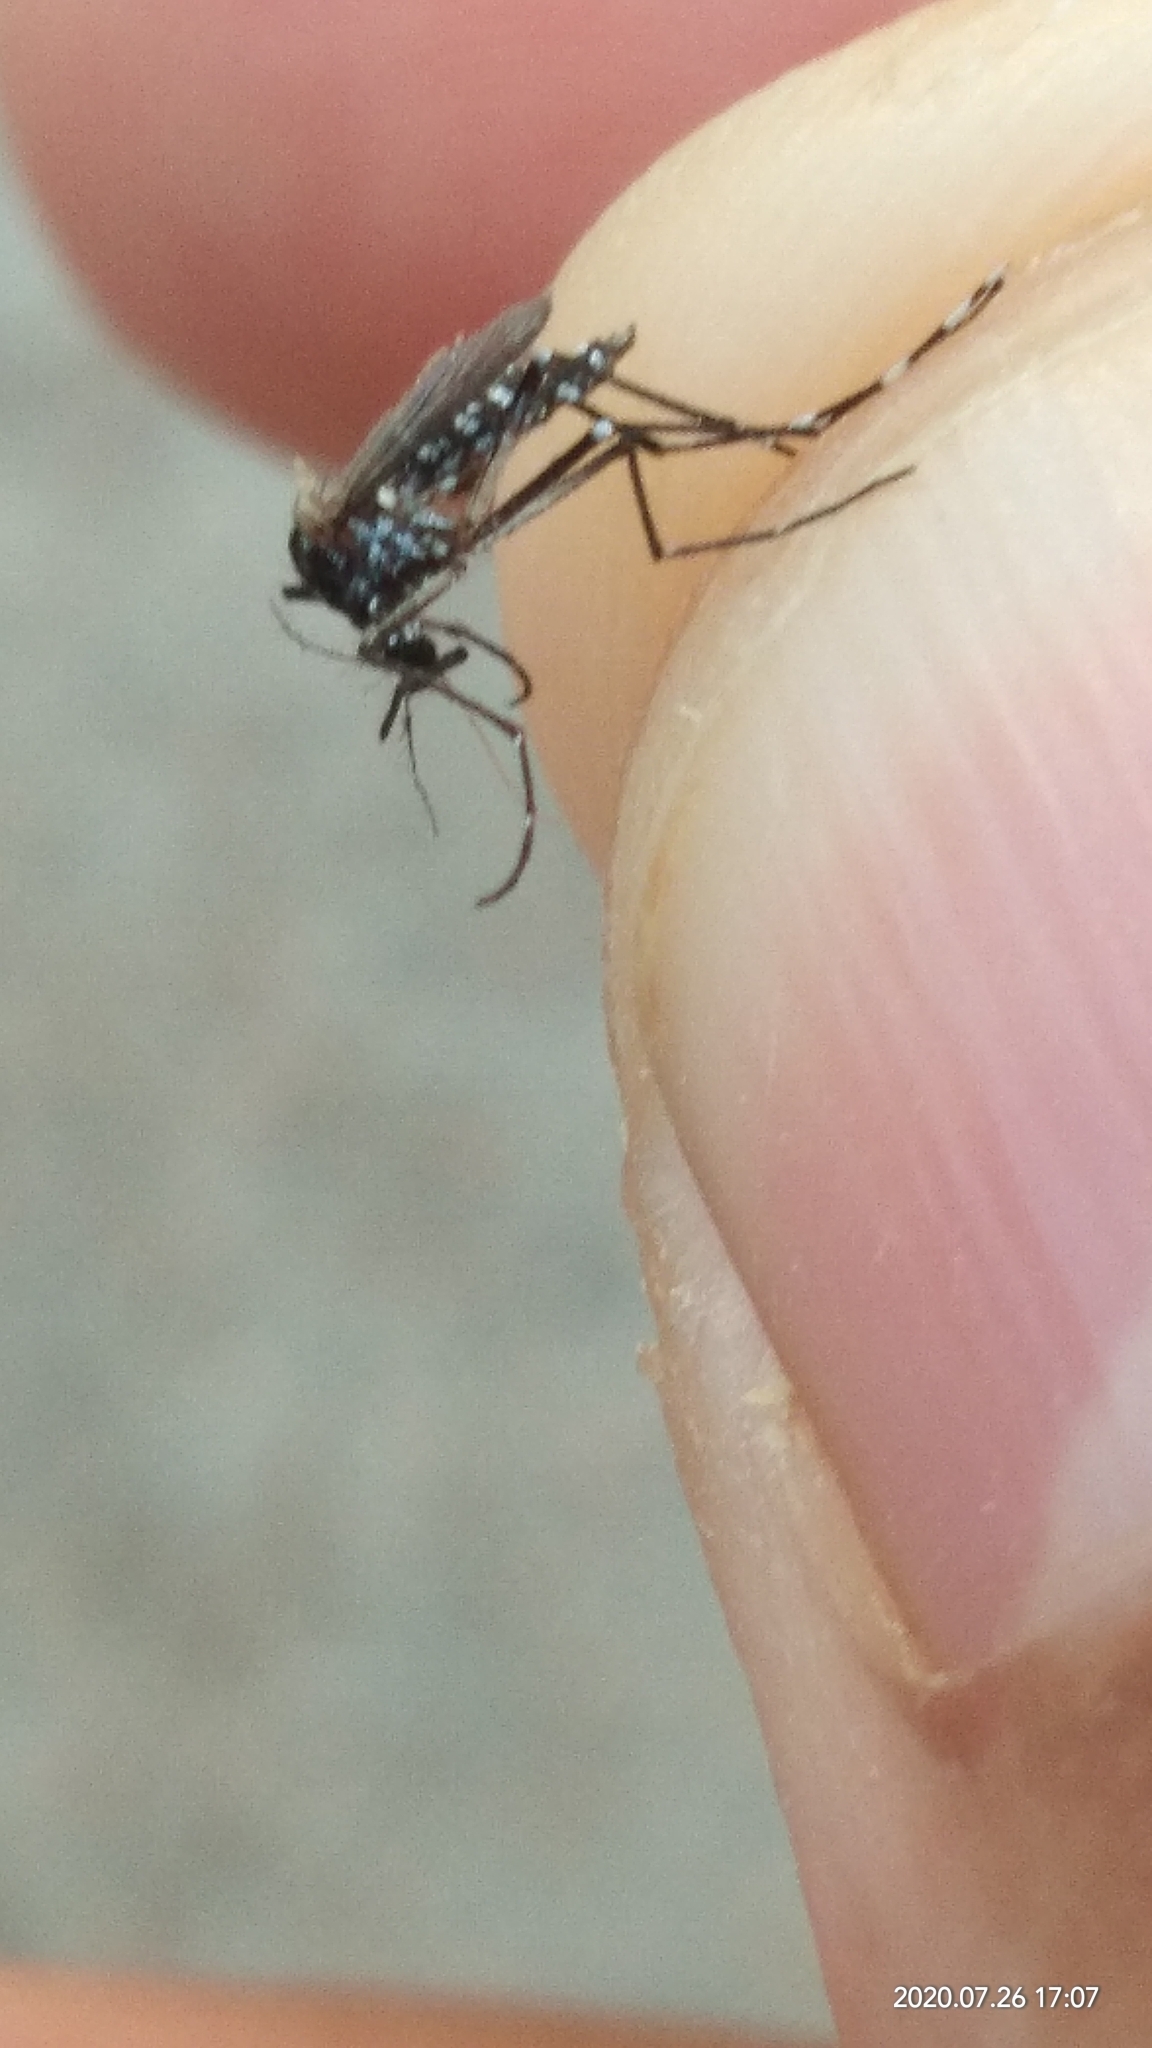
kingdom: Animalia
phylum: Arthropoda
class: Insecta
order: Diptera
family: Culicidae
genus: Aedes
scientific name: Aedes albopictus
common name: Tiger mosquito
